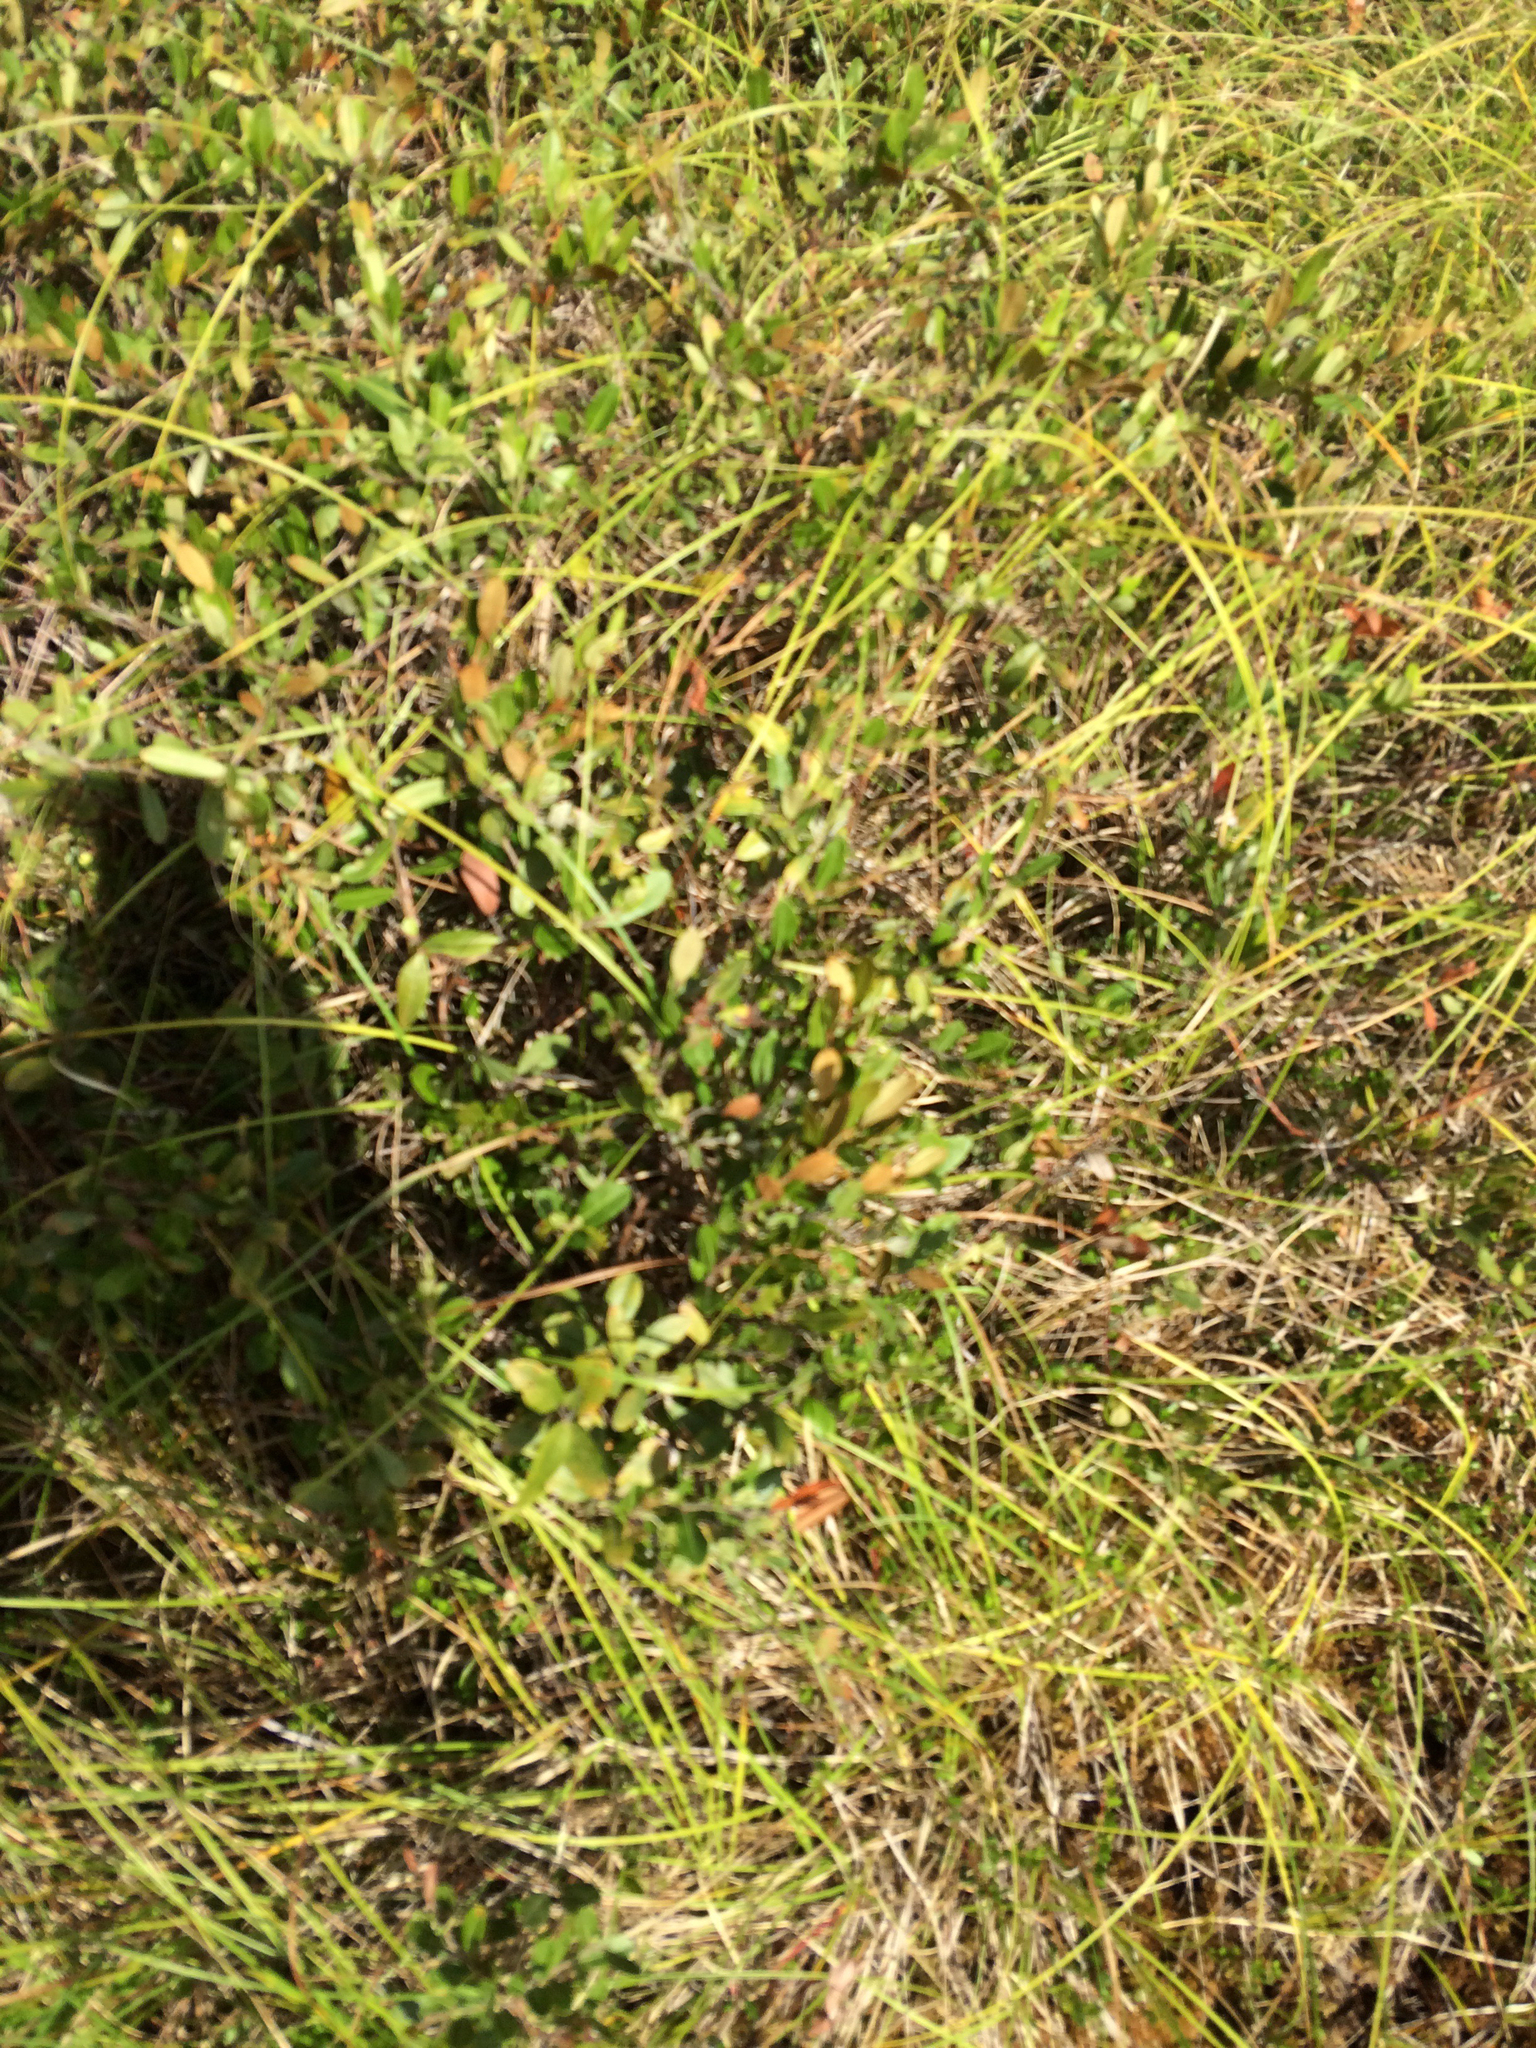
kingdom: Plantae
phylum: Tracheophyta
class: Magnoliopsida
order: Ericales
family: Ericaceae
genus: Chamaedaphne
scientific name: Chamaedaphne calyculata
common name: Leatherleaf
